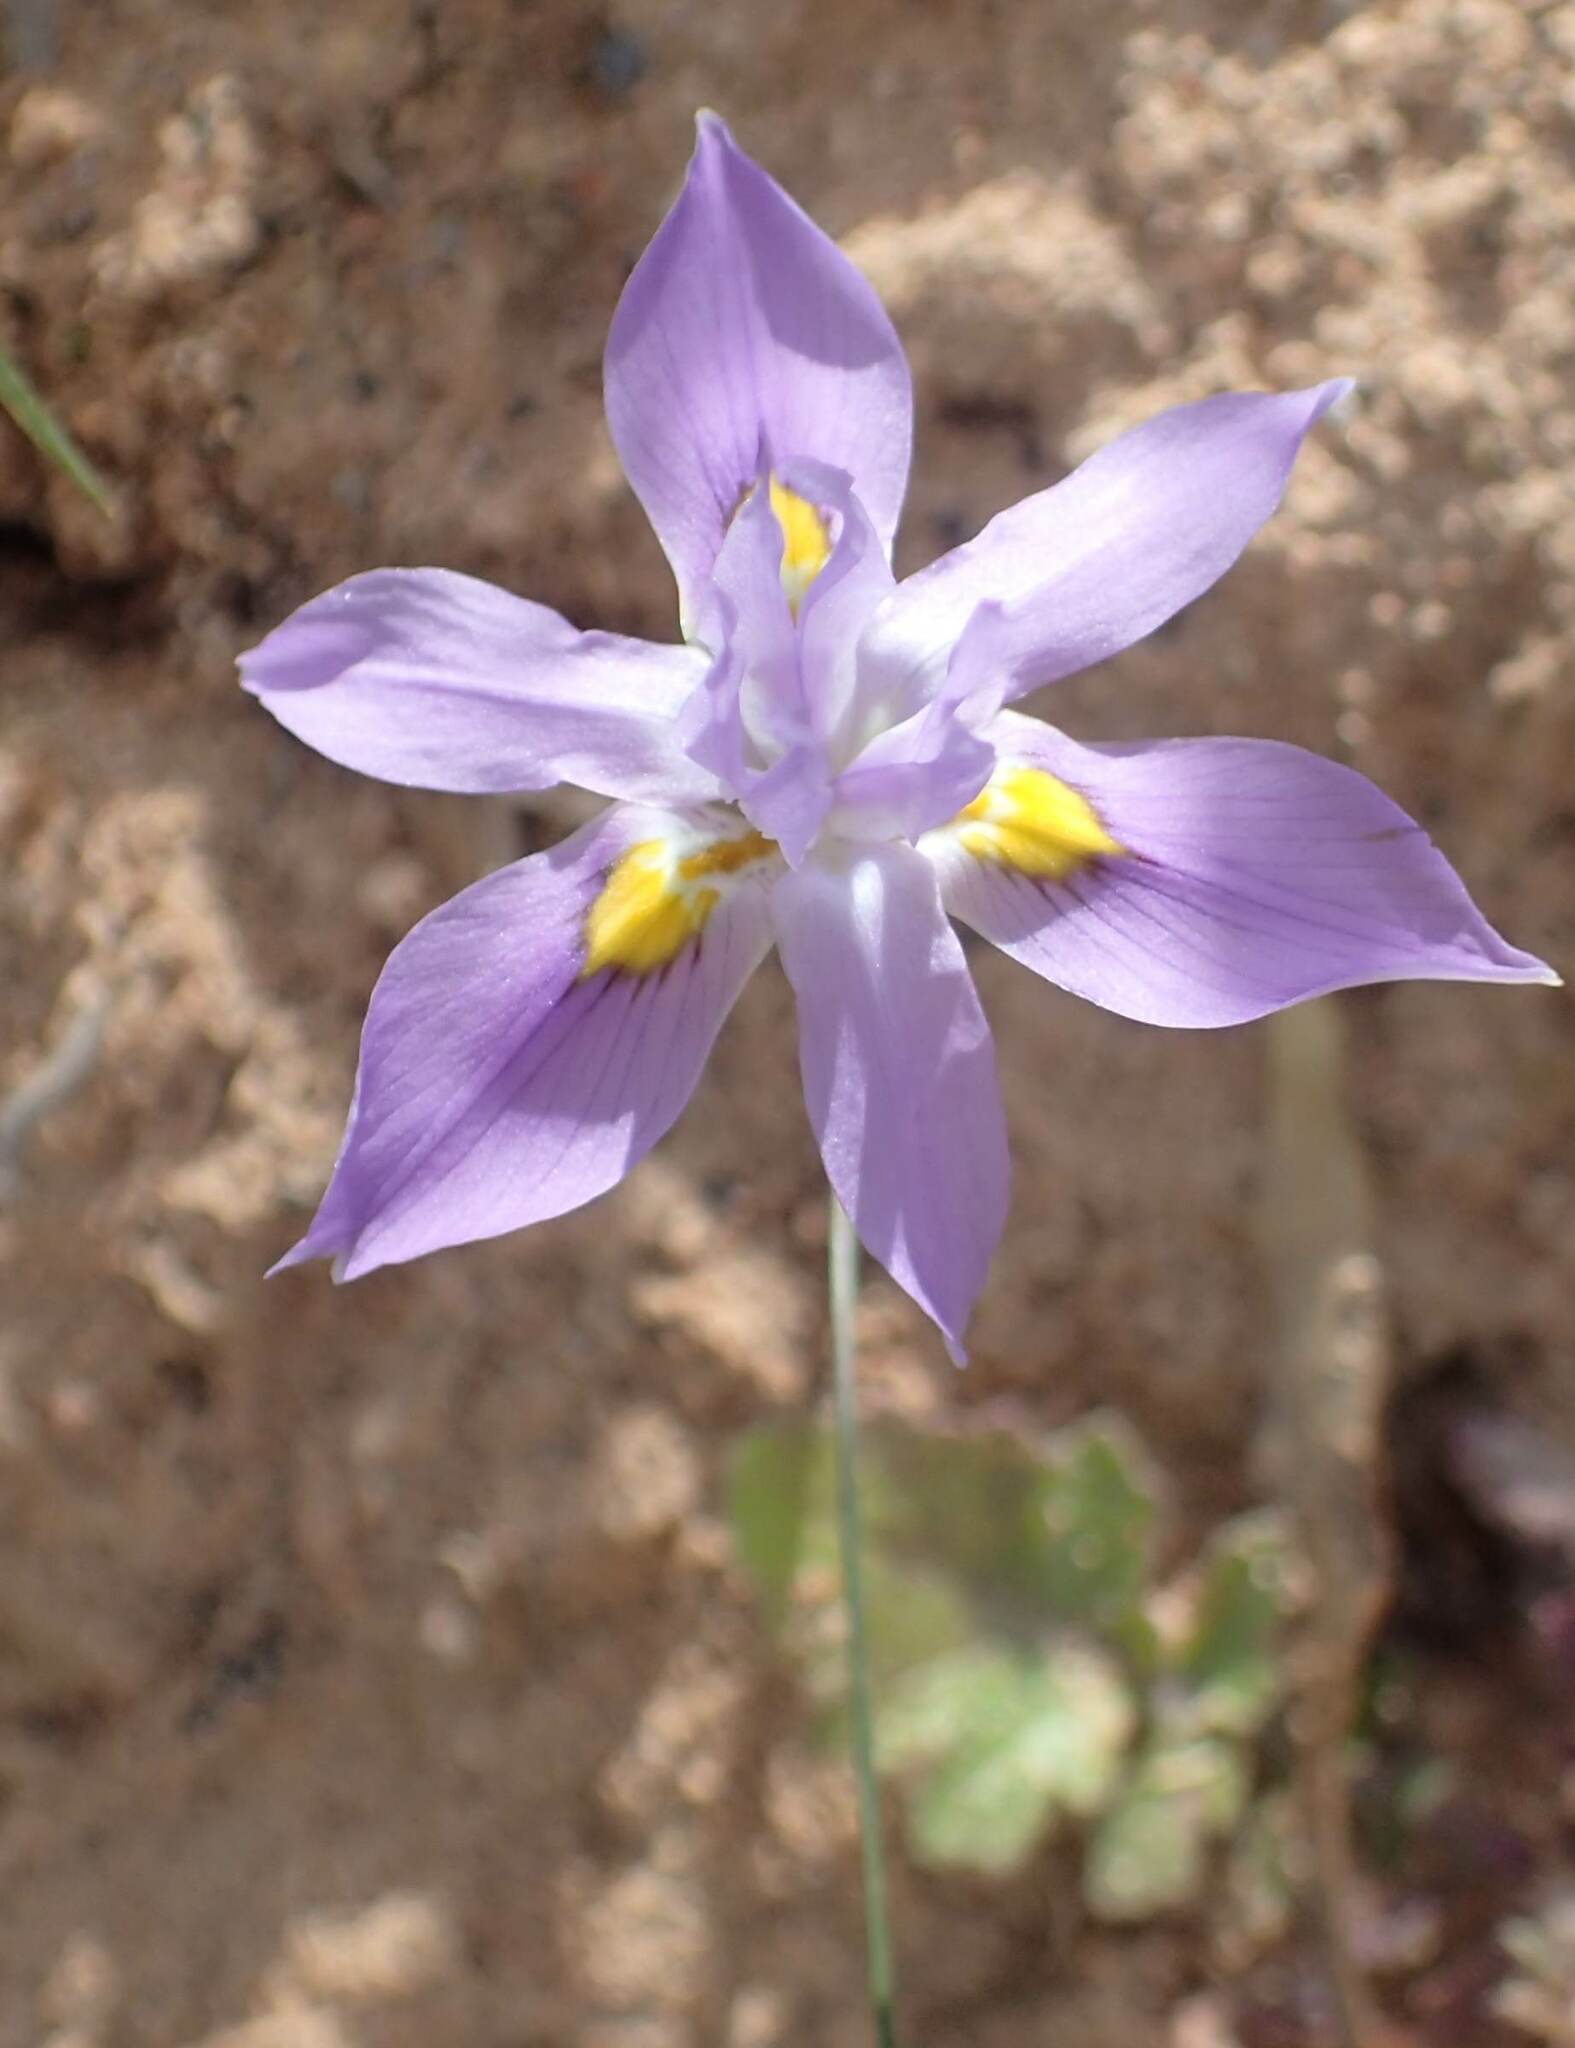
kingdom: Plantae
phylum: Tracheophyta
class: Liliopsida
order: Asparagales
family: Iridaceae
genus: Moraea
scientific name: Moraea macrocarpa
